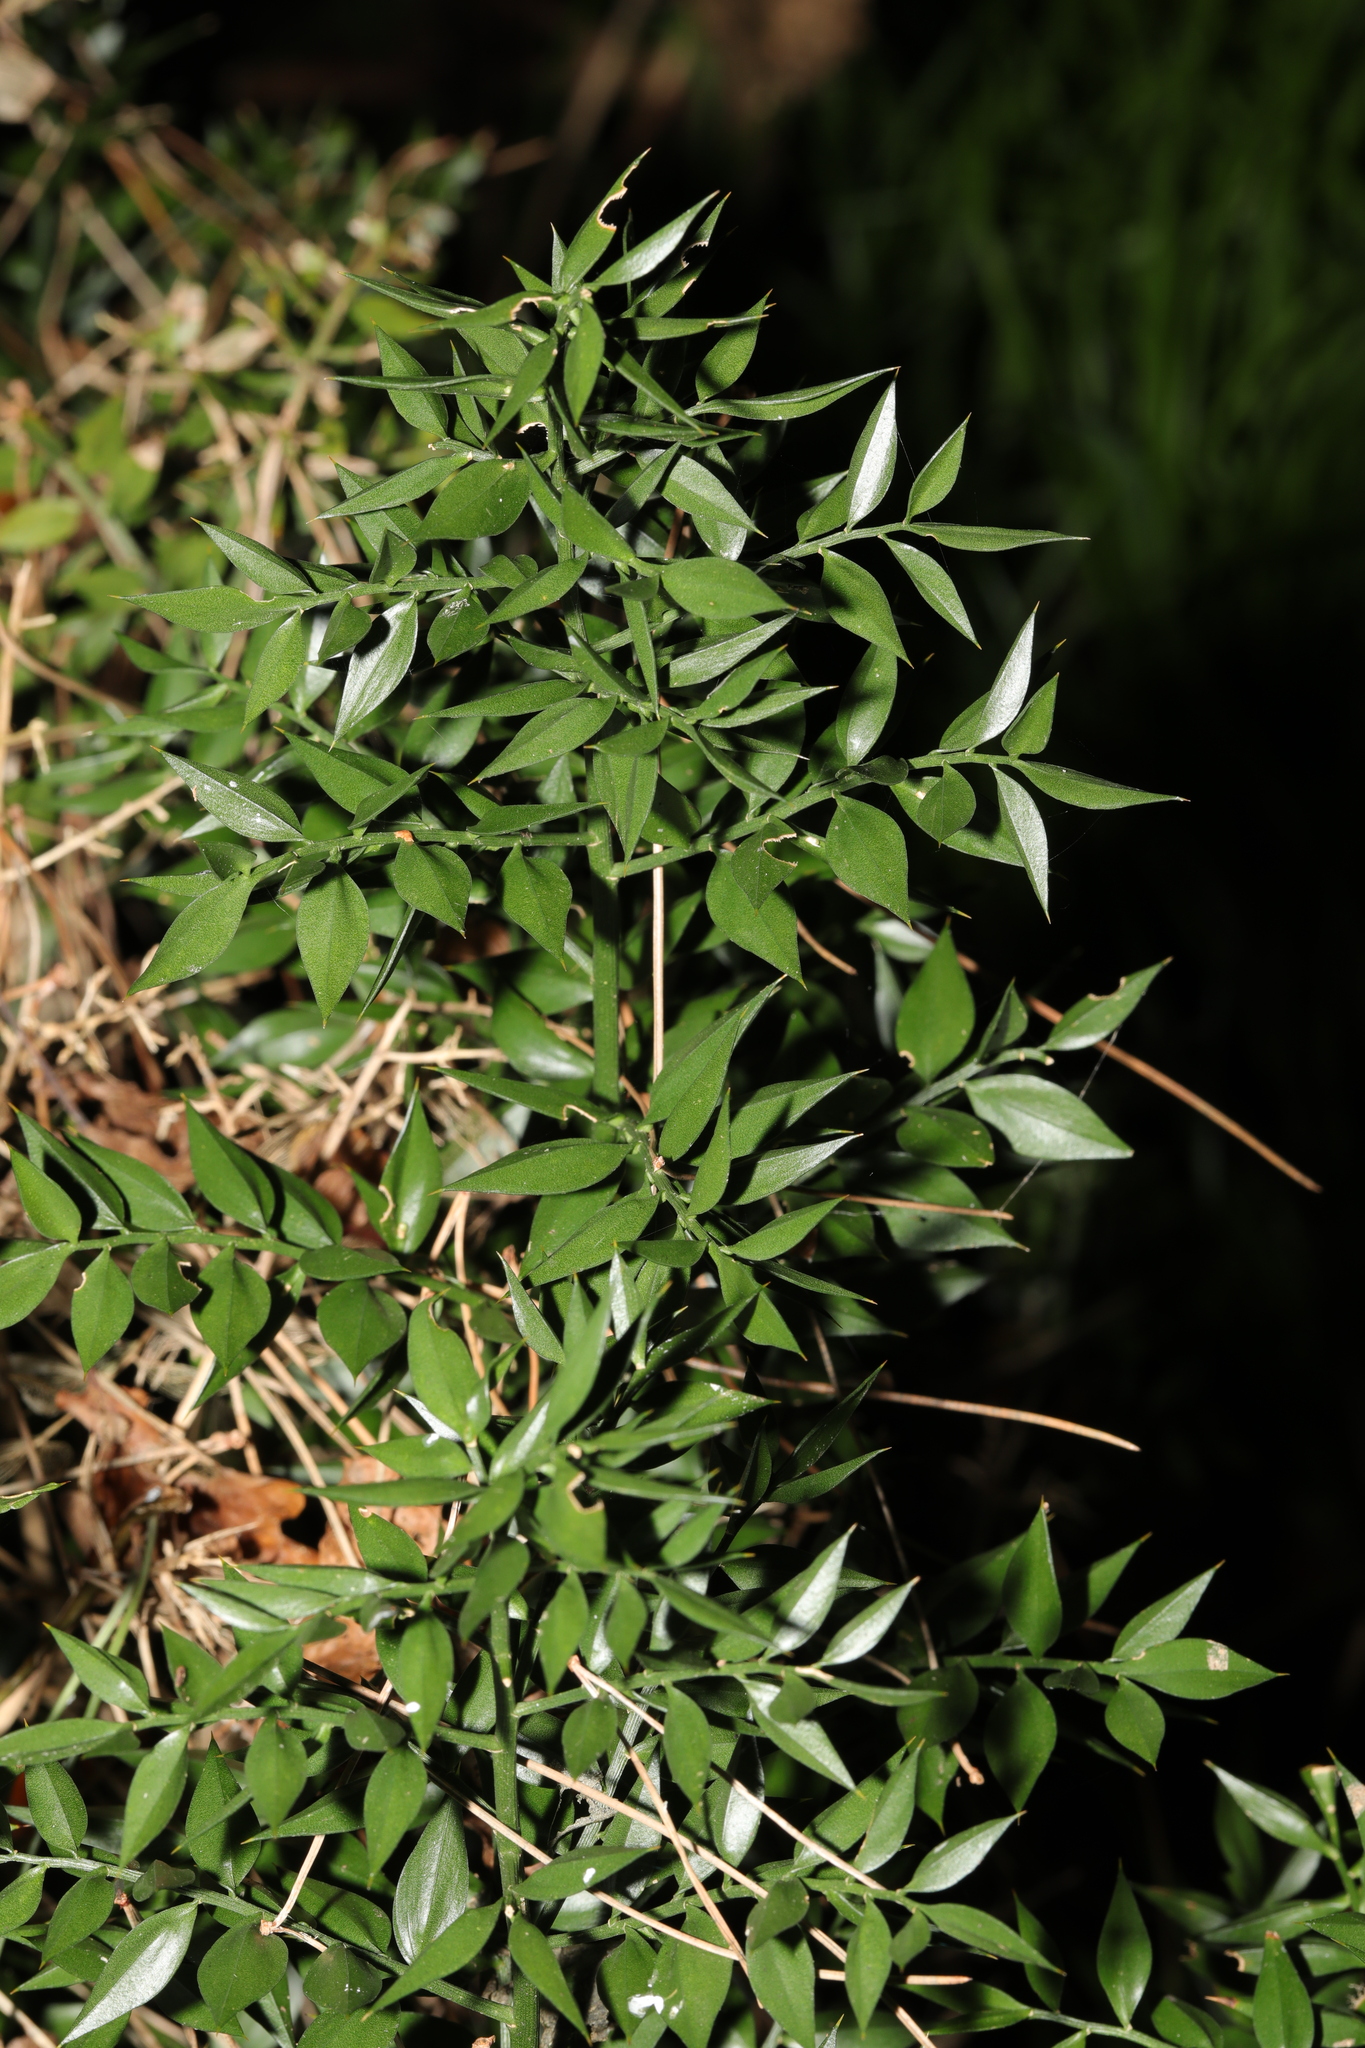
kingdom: Plantae
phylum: Tracheophyta
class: Liliopsida
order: Asparagales
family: Asparagaceae
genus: Ruscus
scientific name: Ruscus aculeatus
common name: Butcher's-broom
